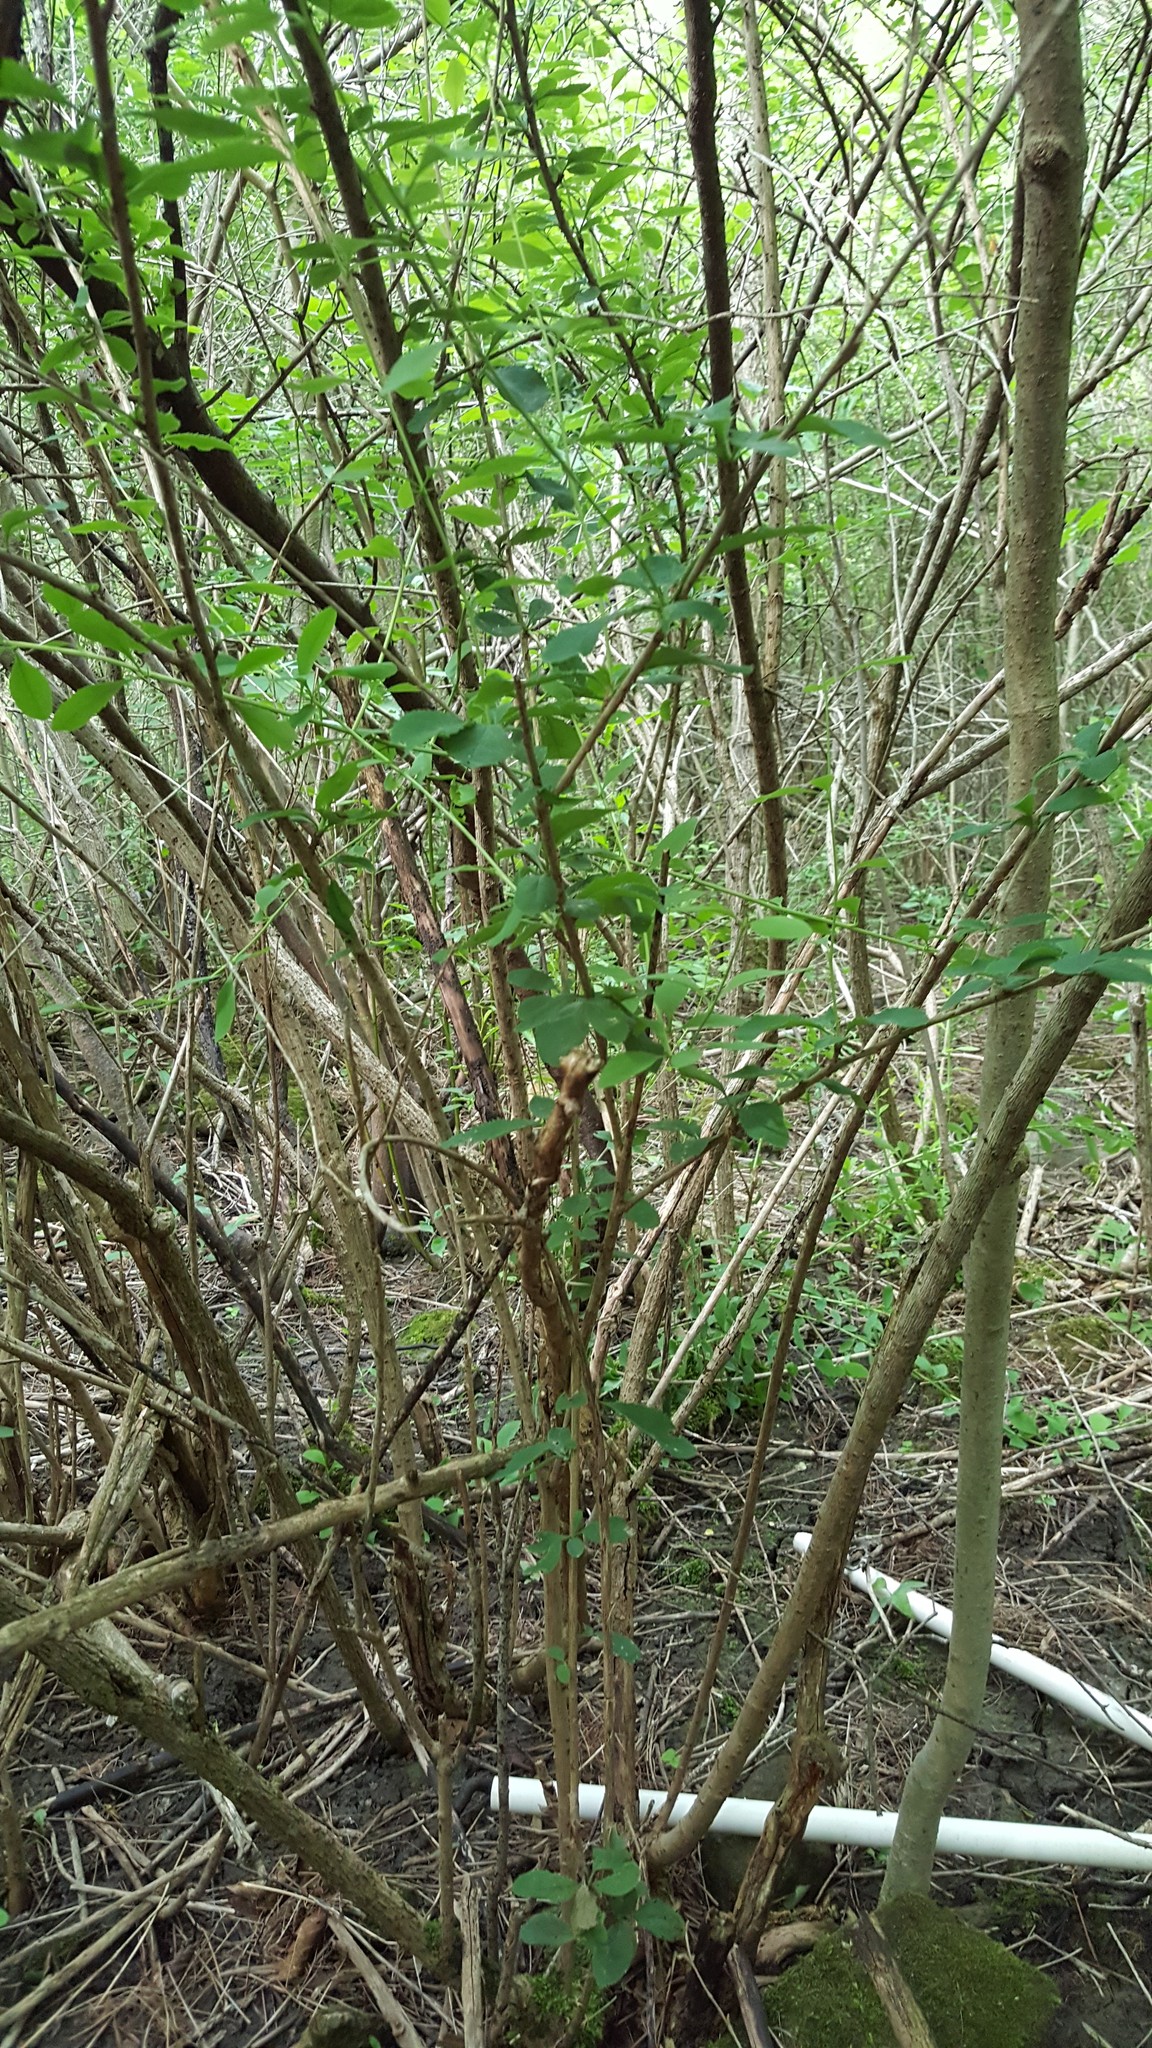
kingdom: Plantae
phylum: Tracheophyta
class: Magnoliopsida
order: Ranunculales
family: Berberidaceae
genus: Berberis
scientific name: Berberis vulgaris
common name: Barberry
